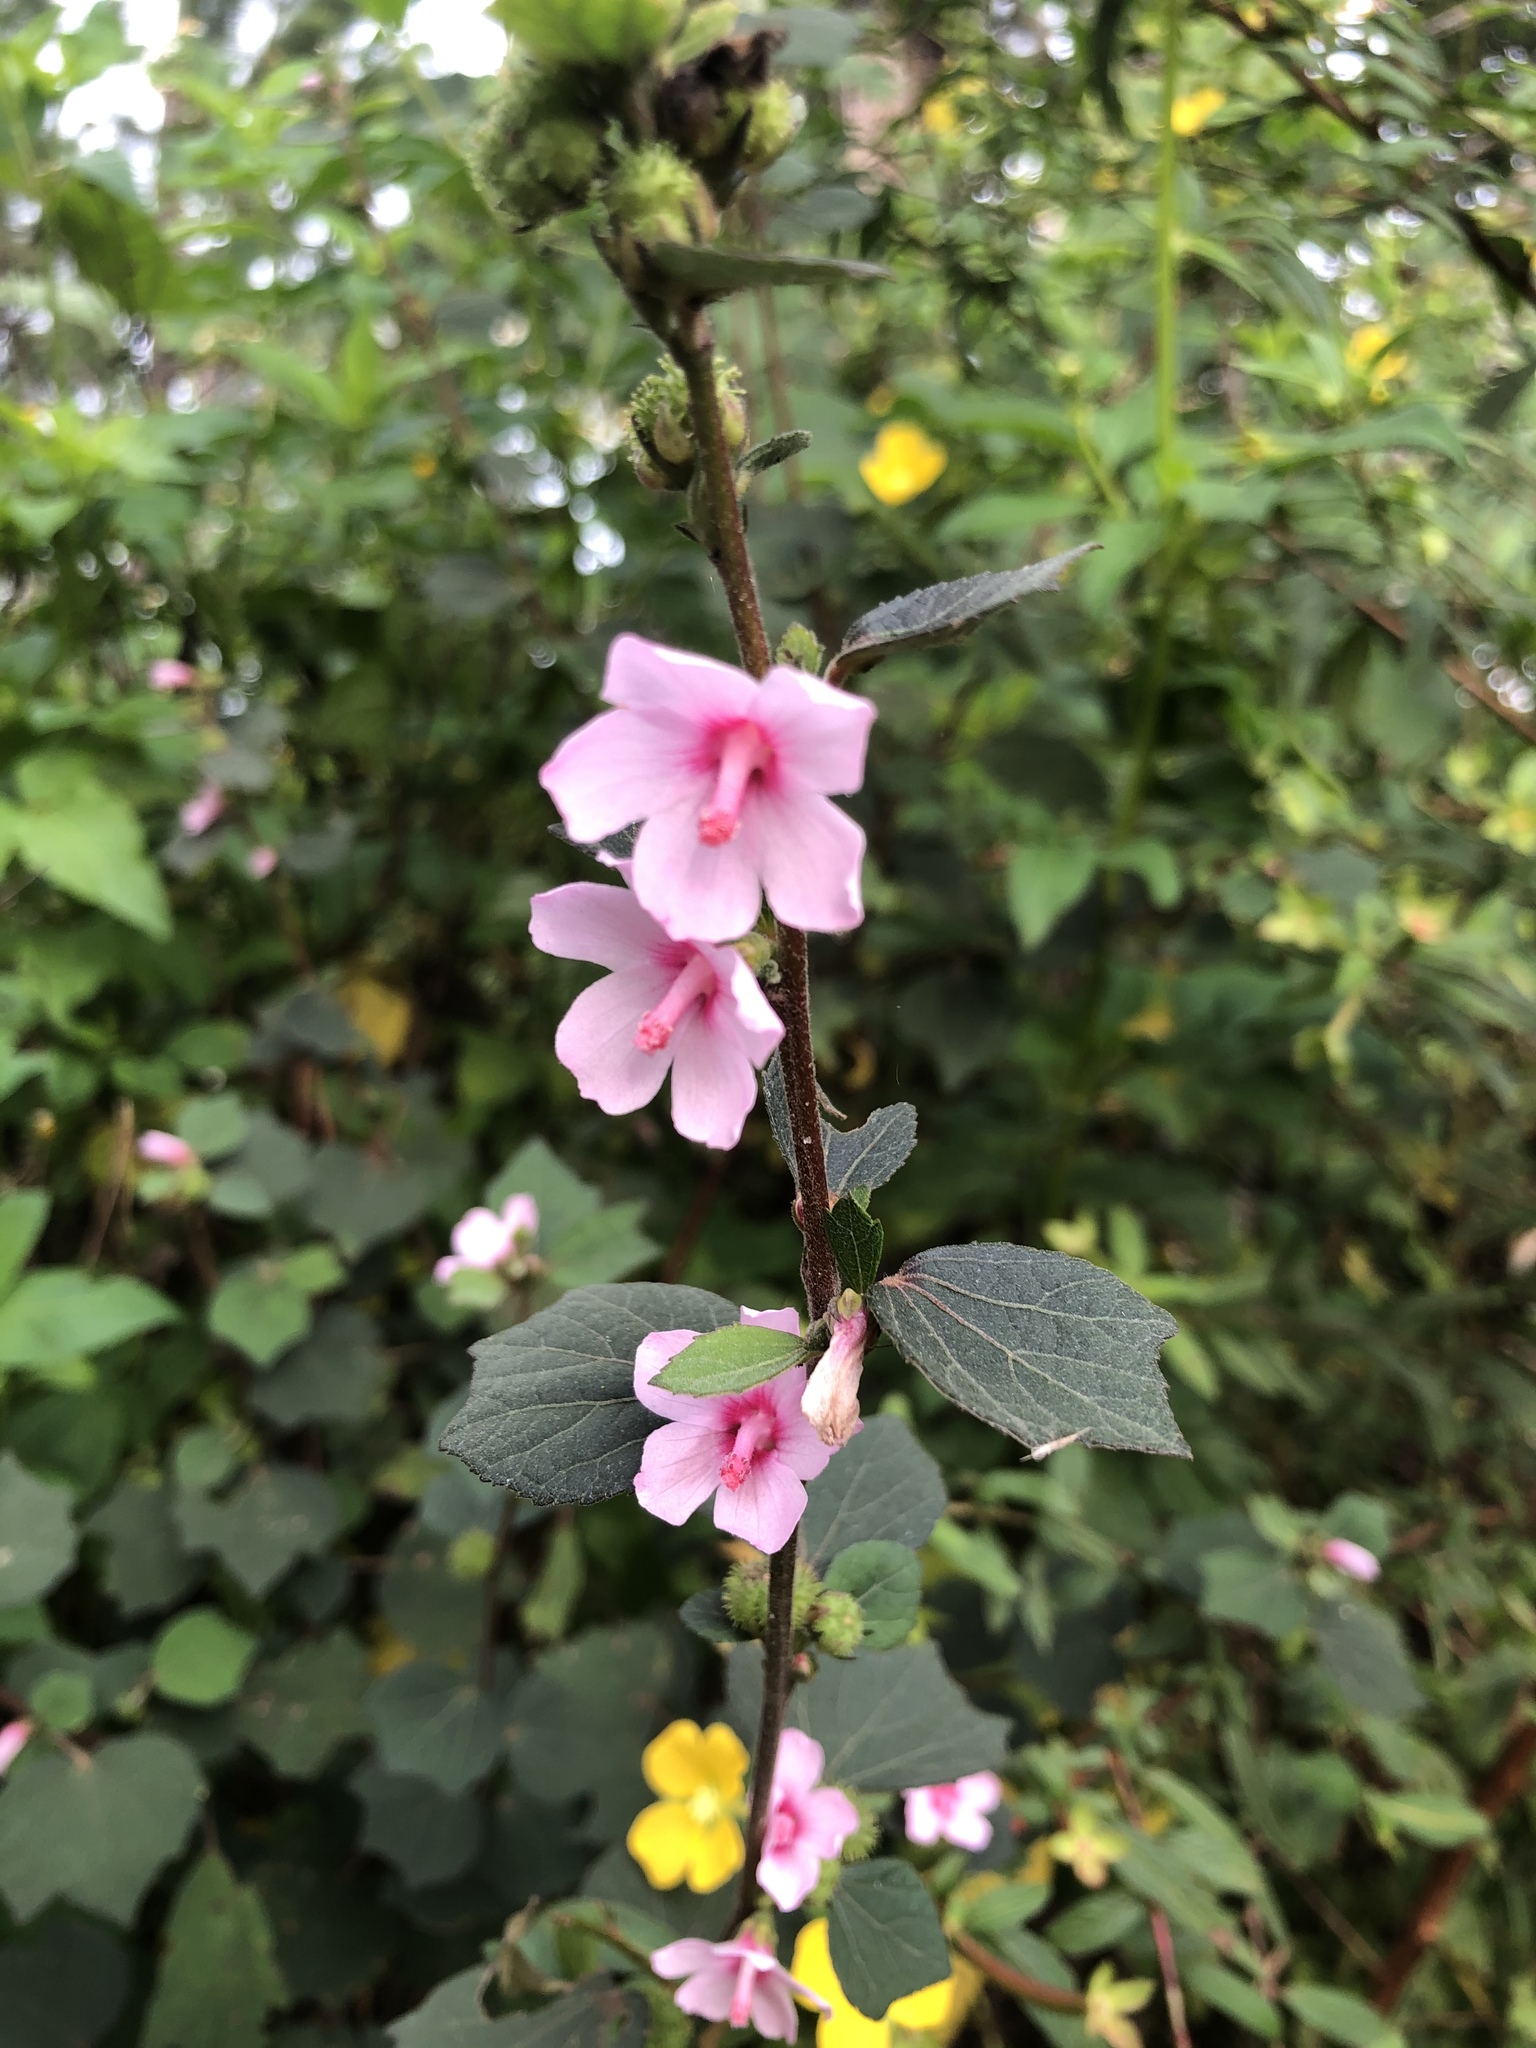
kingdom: Plantae
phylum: Tracheophyta
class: Magnoliopsida
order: Malvales
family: Malvaceae
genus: Urena
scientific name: Urena lobata
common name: Caesarweed
